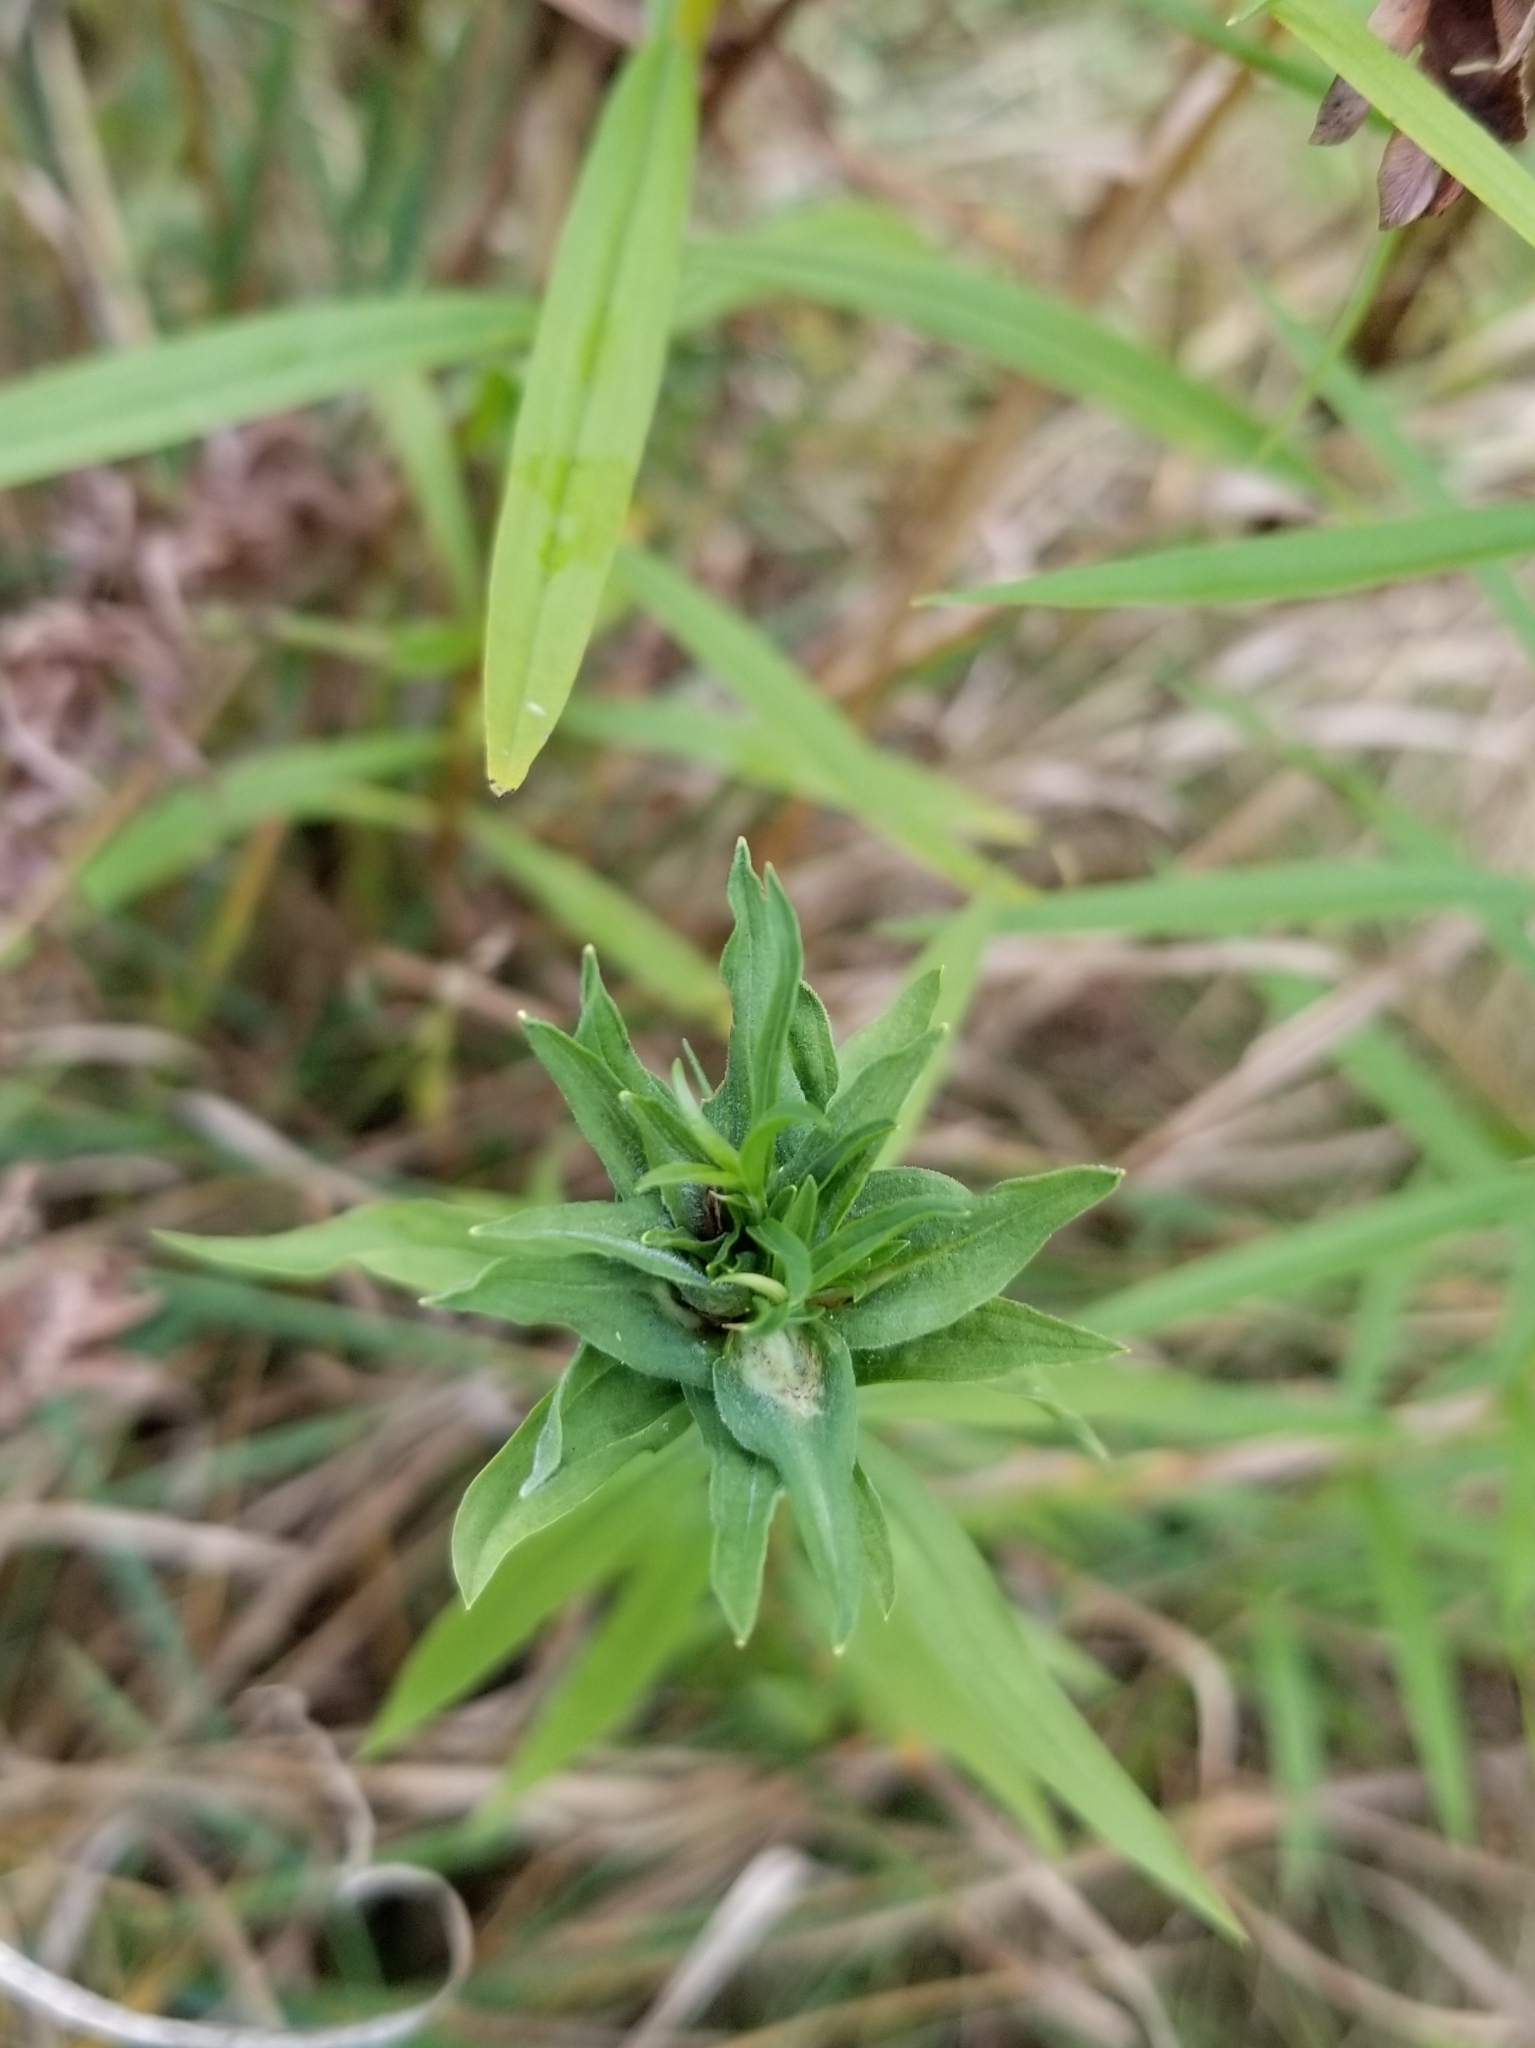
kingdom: Animalia
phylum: Arthropoda
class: Insecta
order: Diptera
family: Cecidomyiidae
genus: Asphondylia
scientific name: Asphondylia pseudorosa
